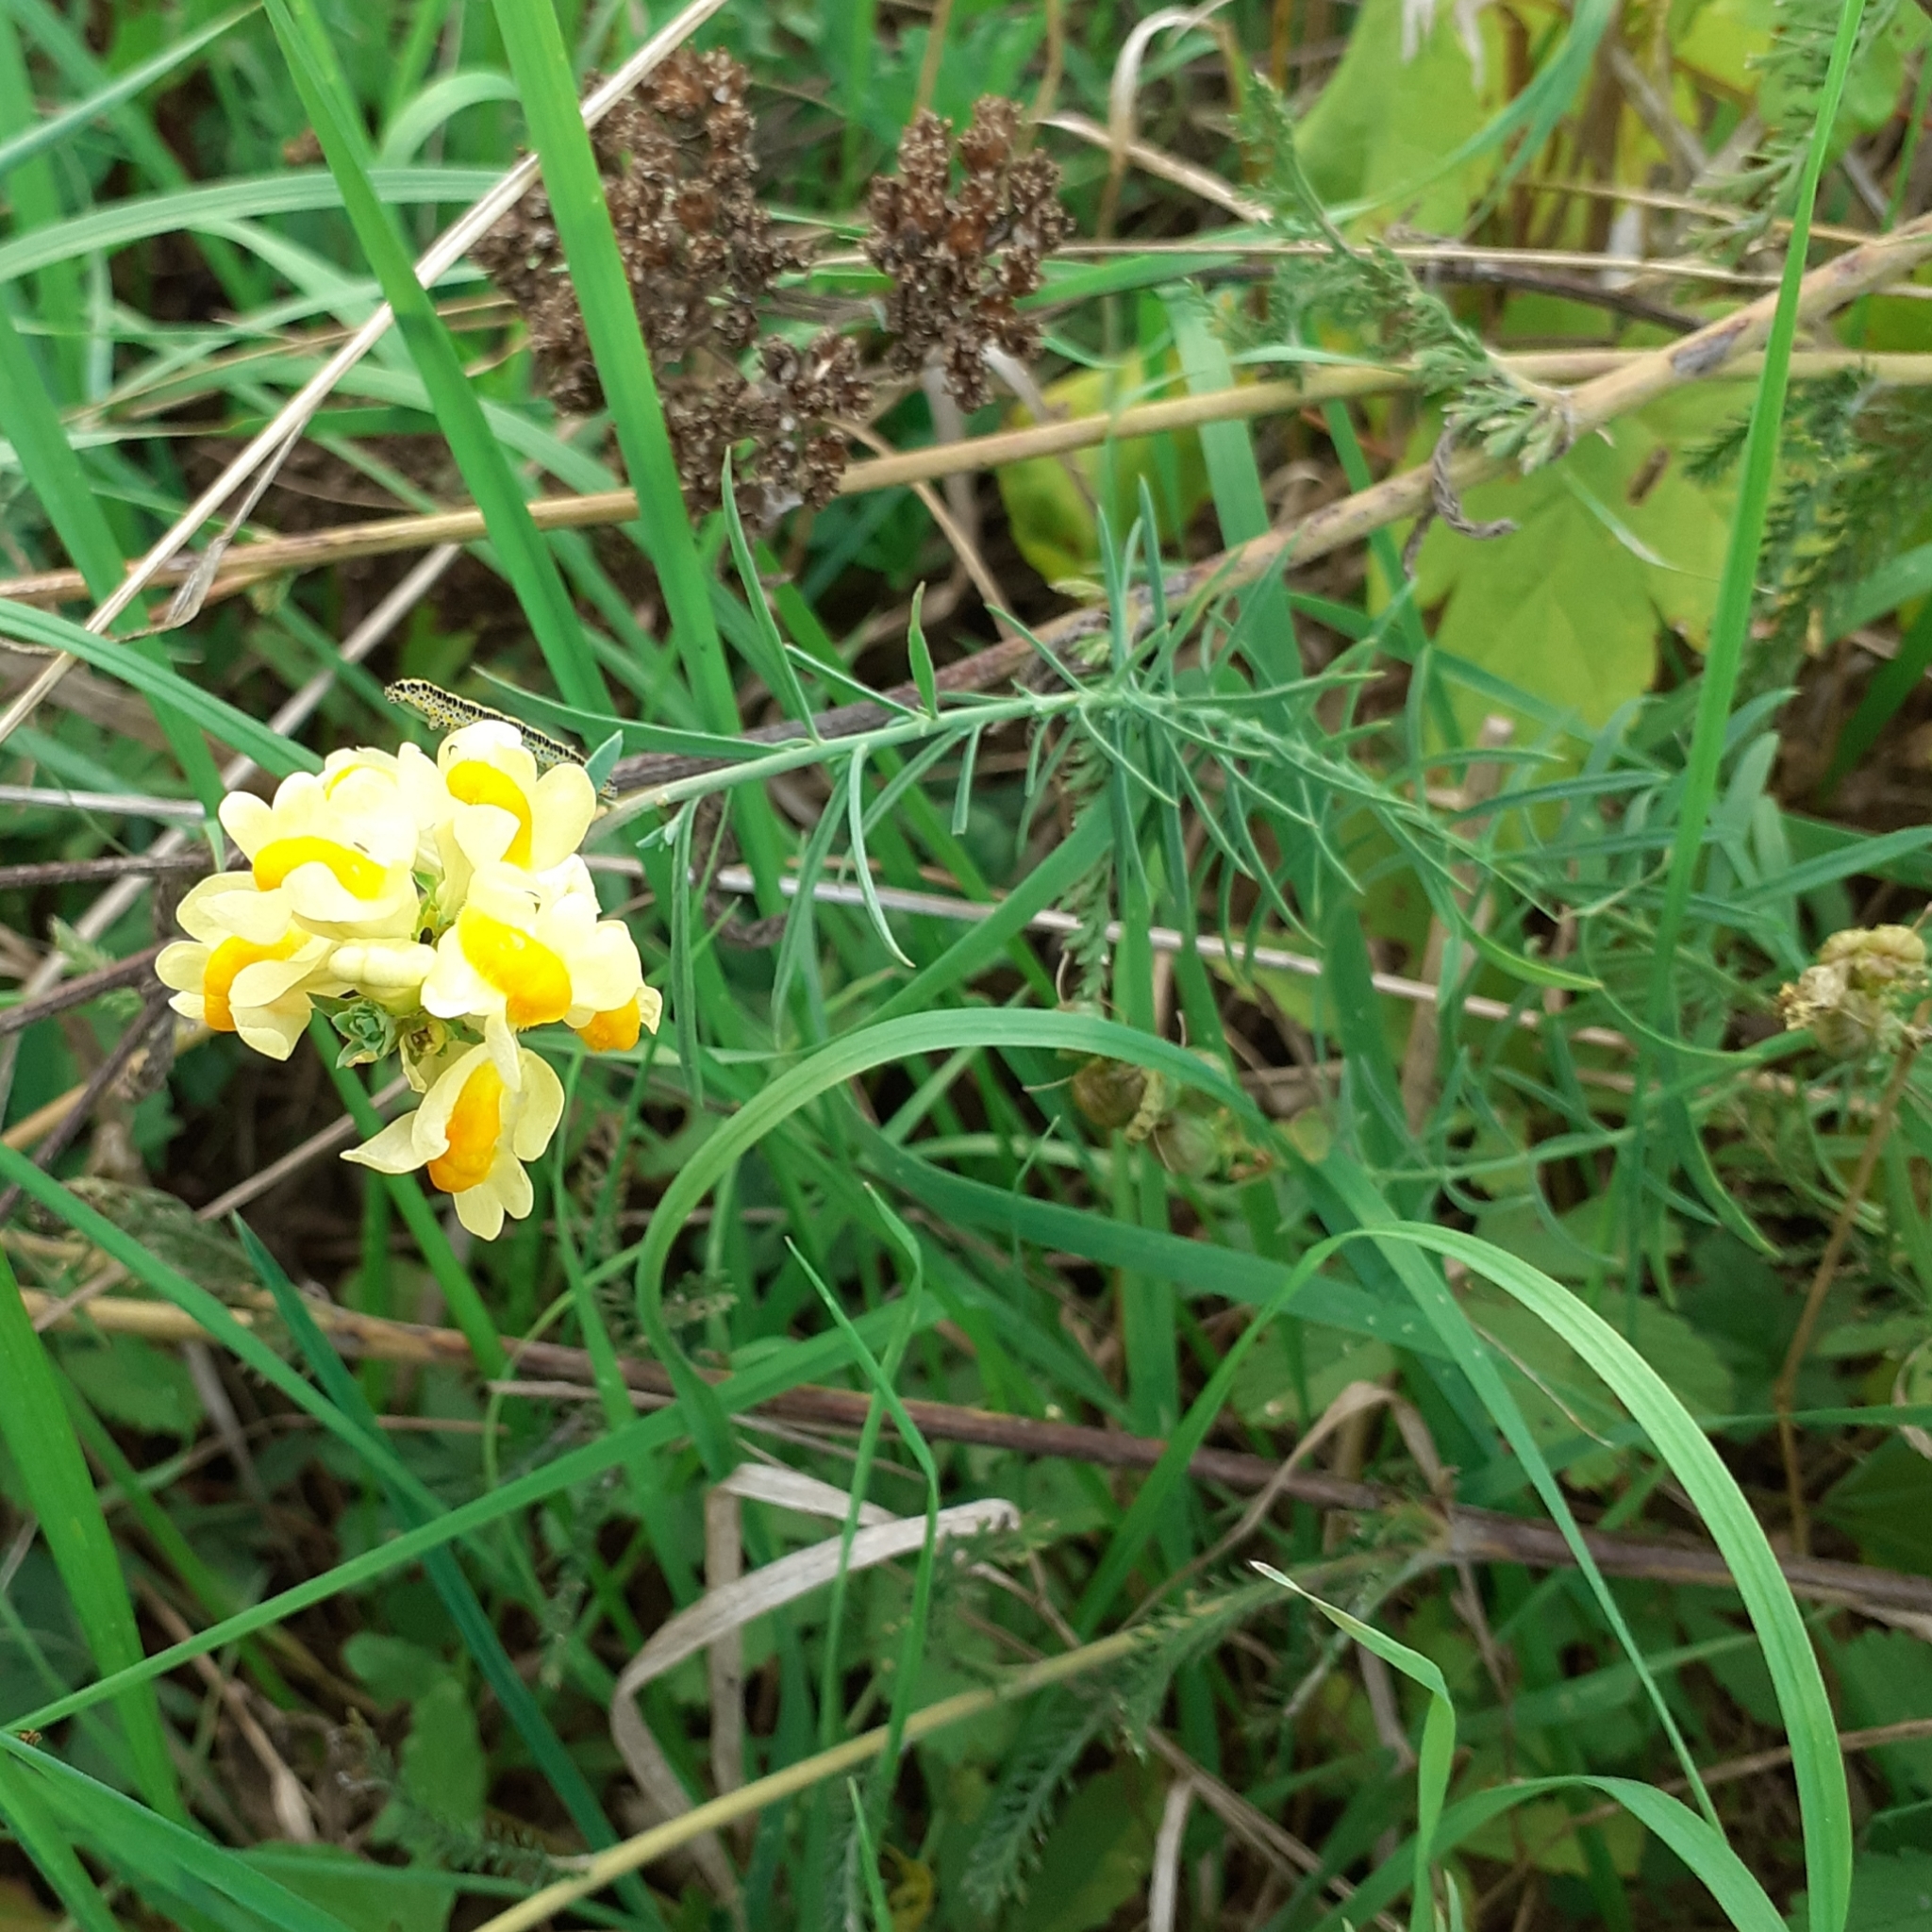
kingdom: Plantae
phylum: Tracheophyta
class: Magnoliopsida
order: Lamiales
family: Plantaginaceae
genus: Linaria
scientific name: Linaria vulgaris
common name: Butter and eggs
